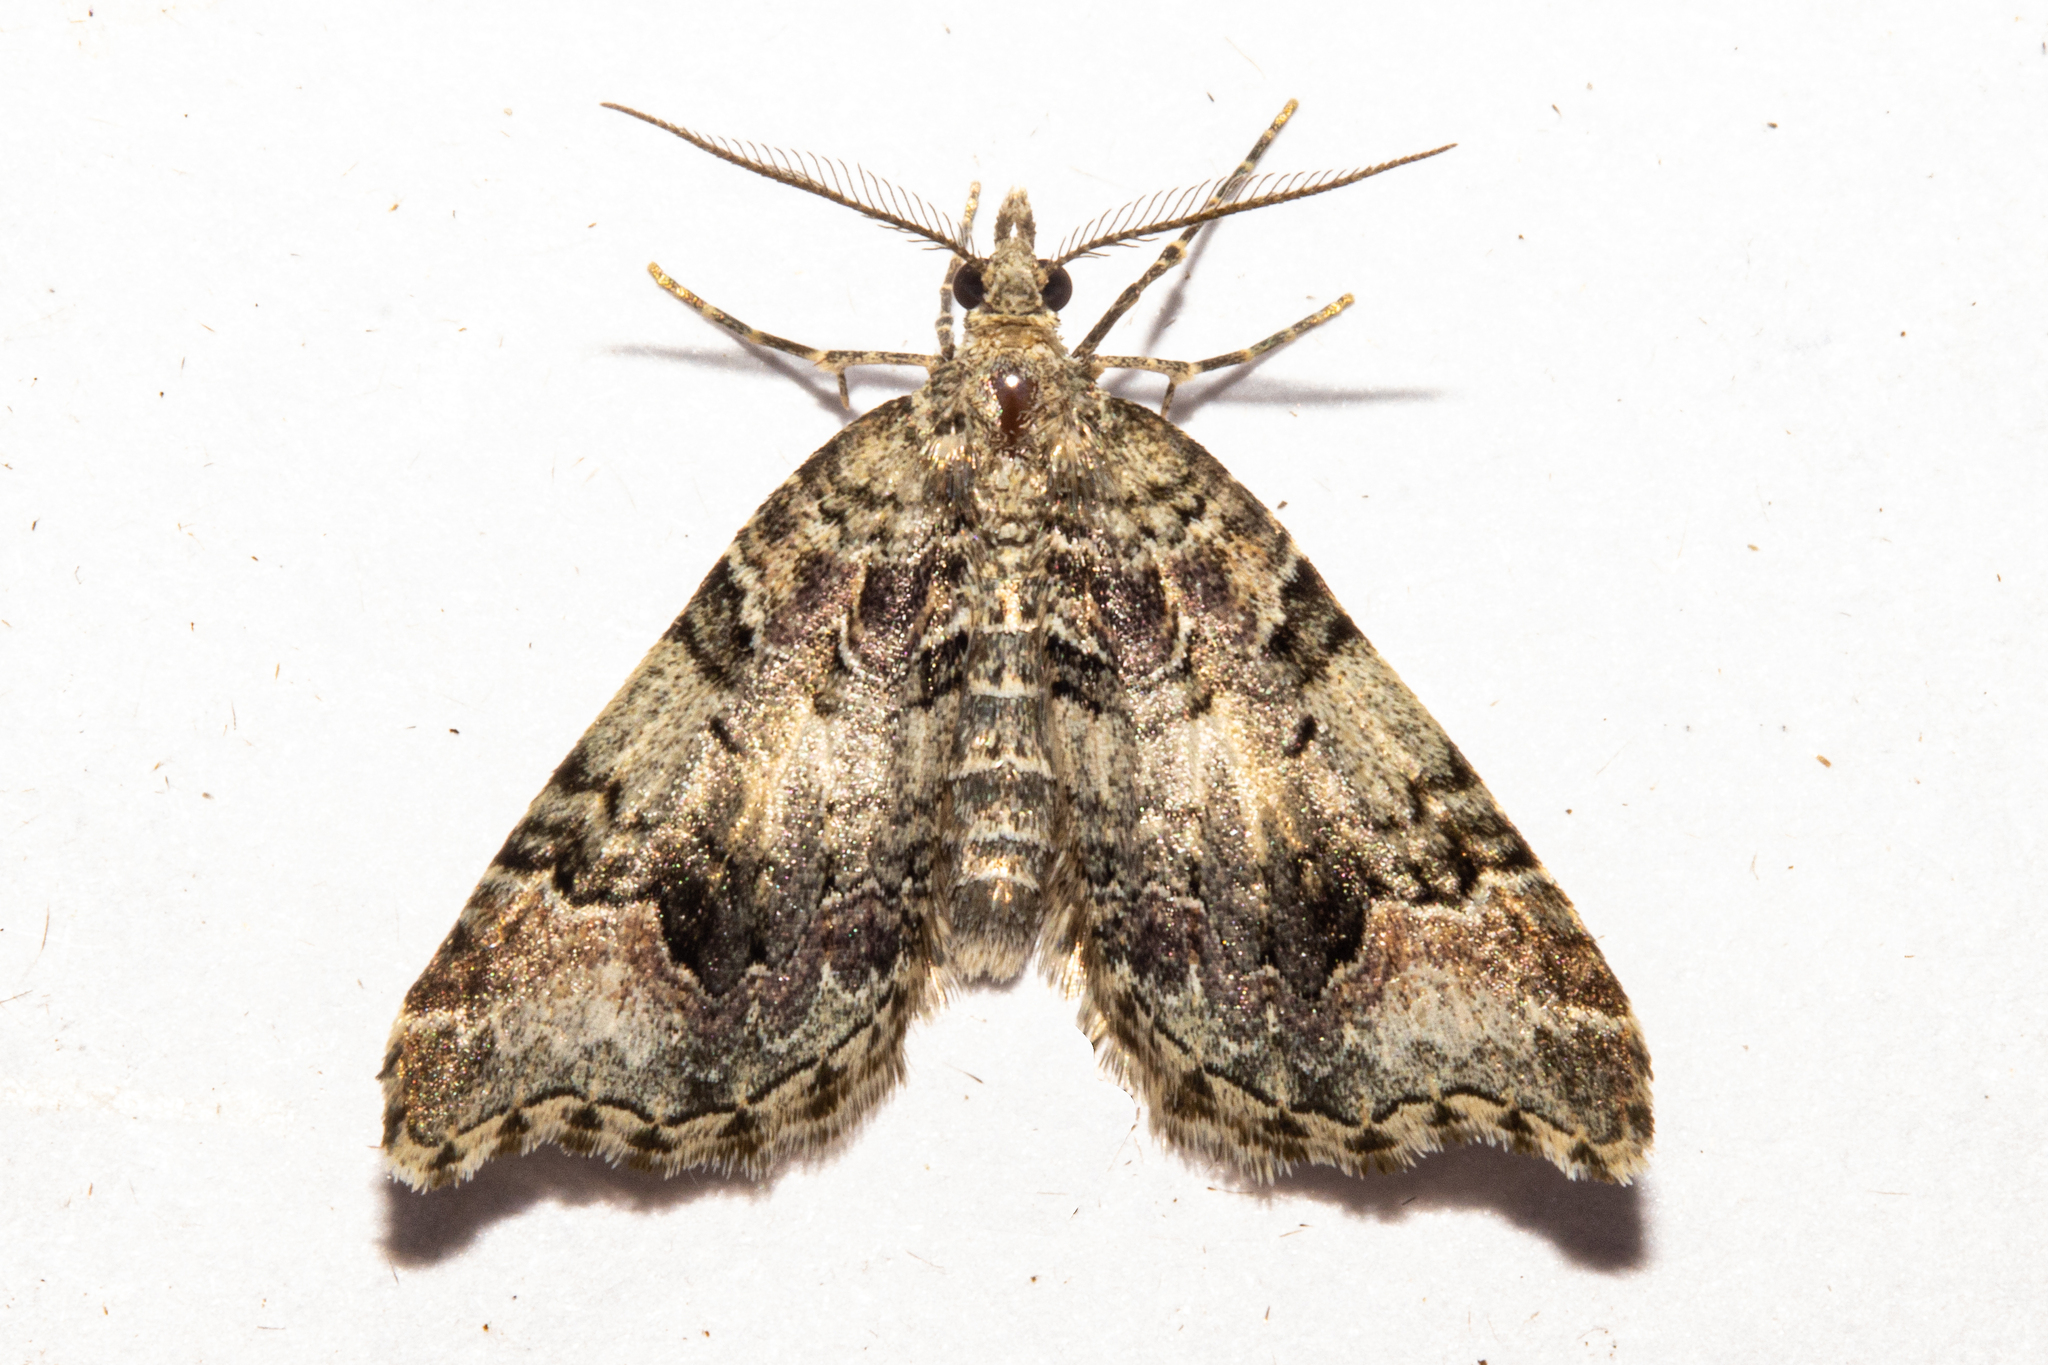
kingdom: Animalia
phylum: Arthropoda
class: Insecta
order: Lepidoptera
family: Geometridae
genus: Helastia
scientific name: Helastia cryptica
